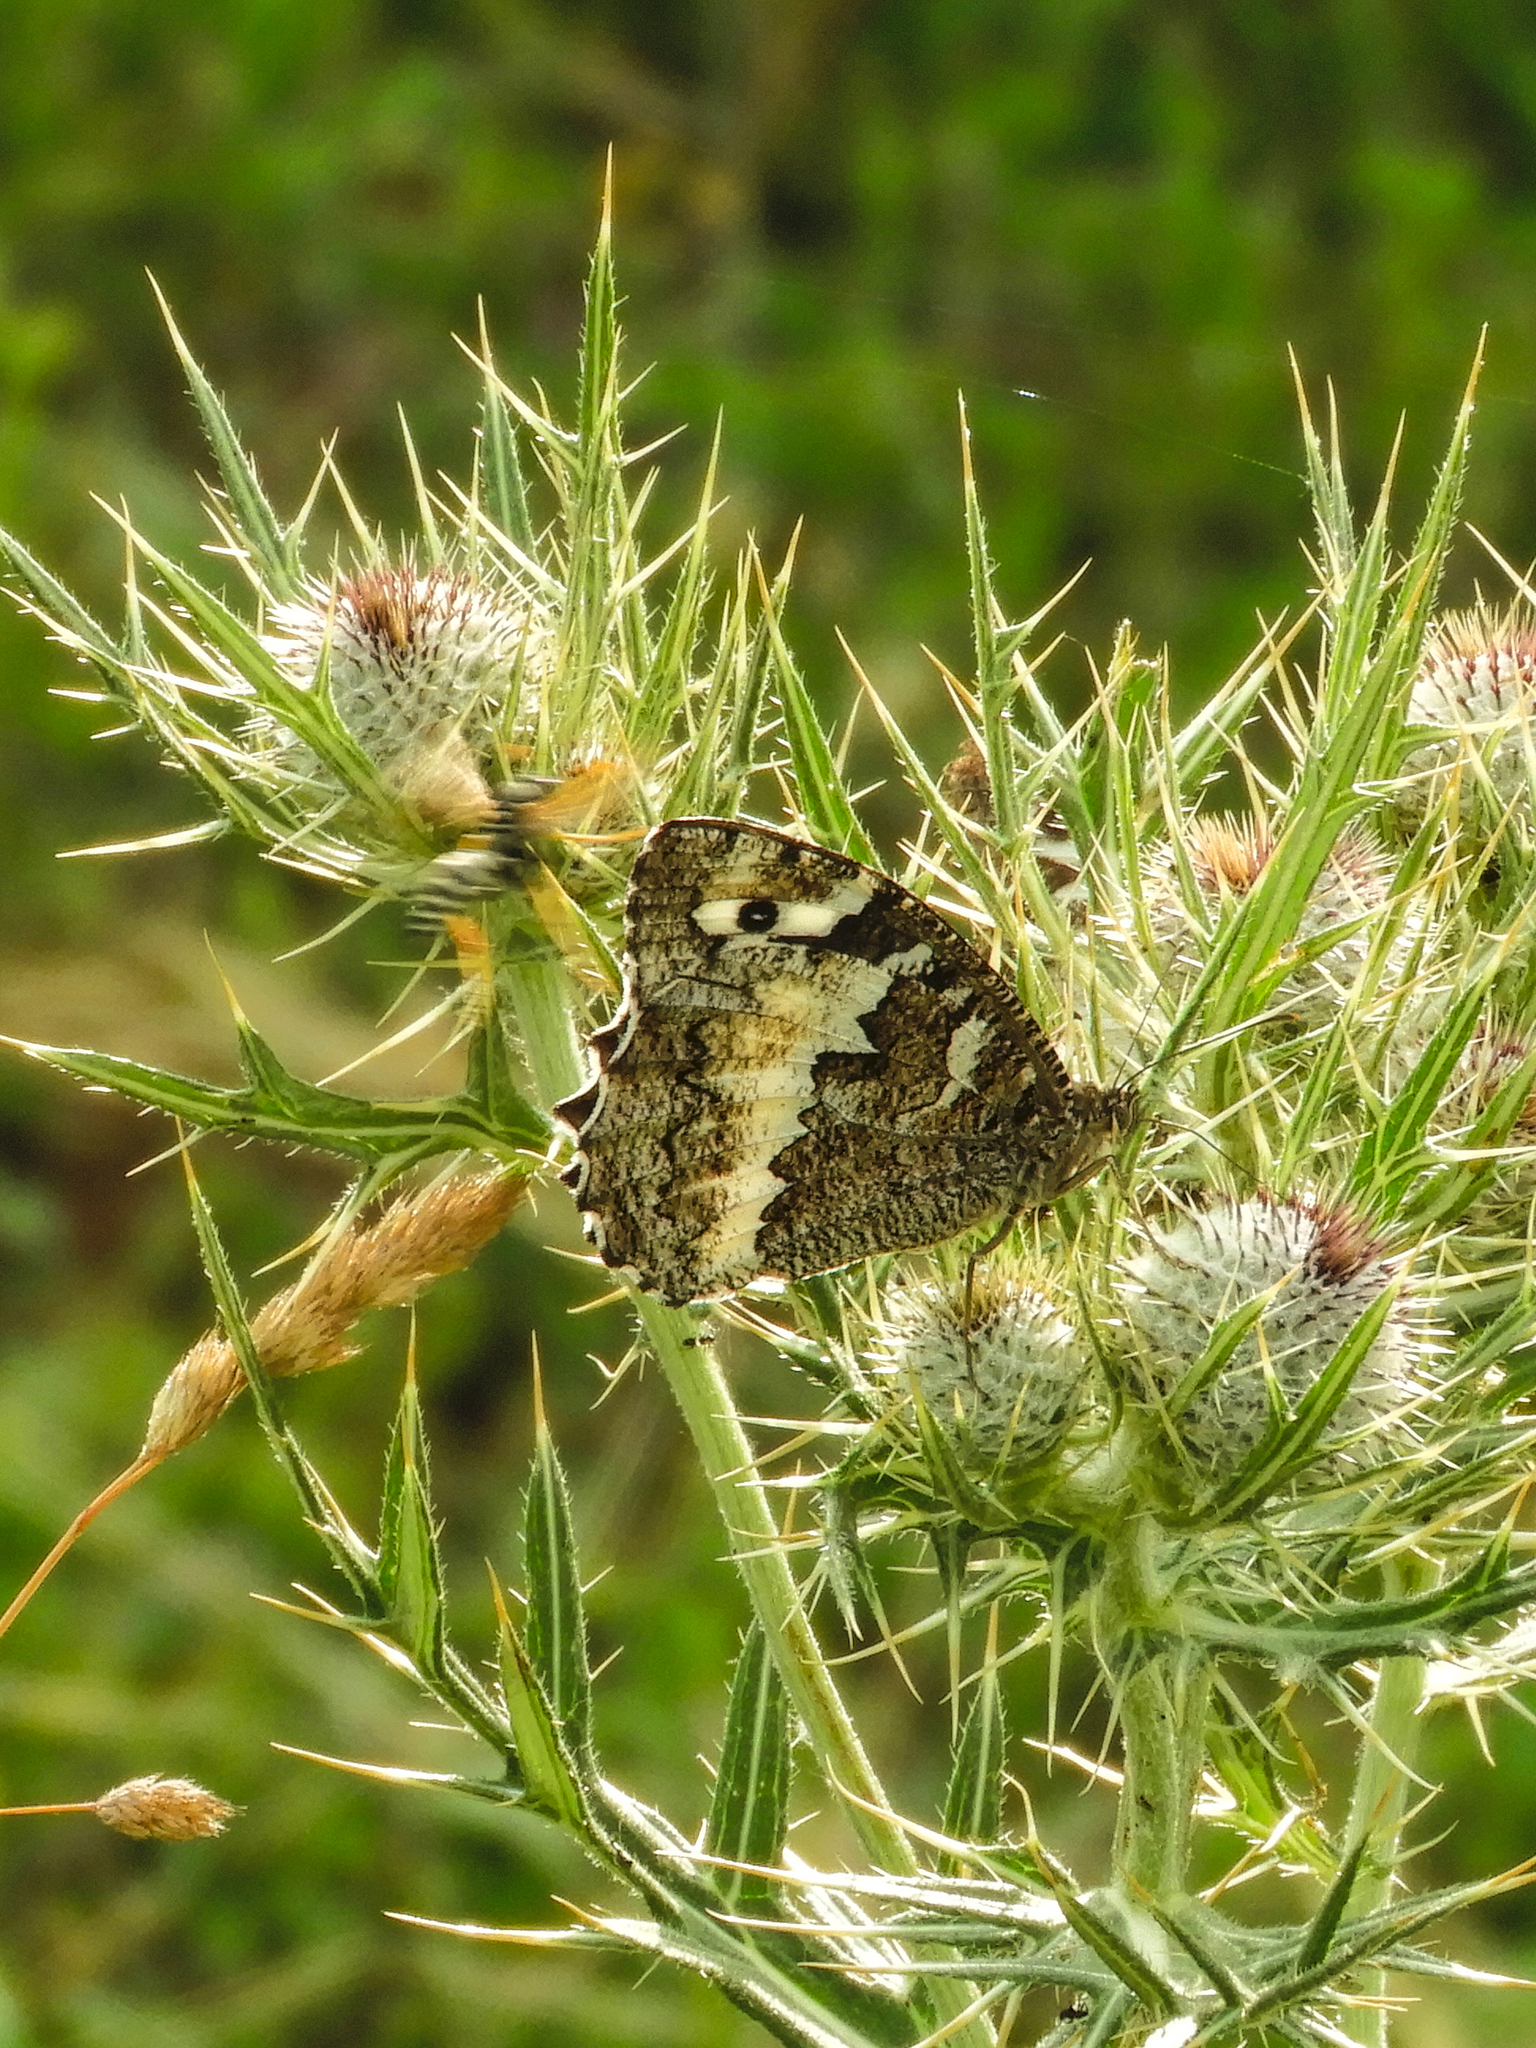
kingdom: Animalia
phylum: Arthropoda
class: Insecta
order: Lepidoptera
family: Lycaenidae
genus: Loweia
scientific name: Loweia tityrus
